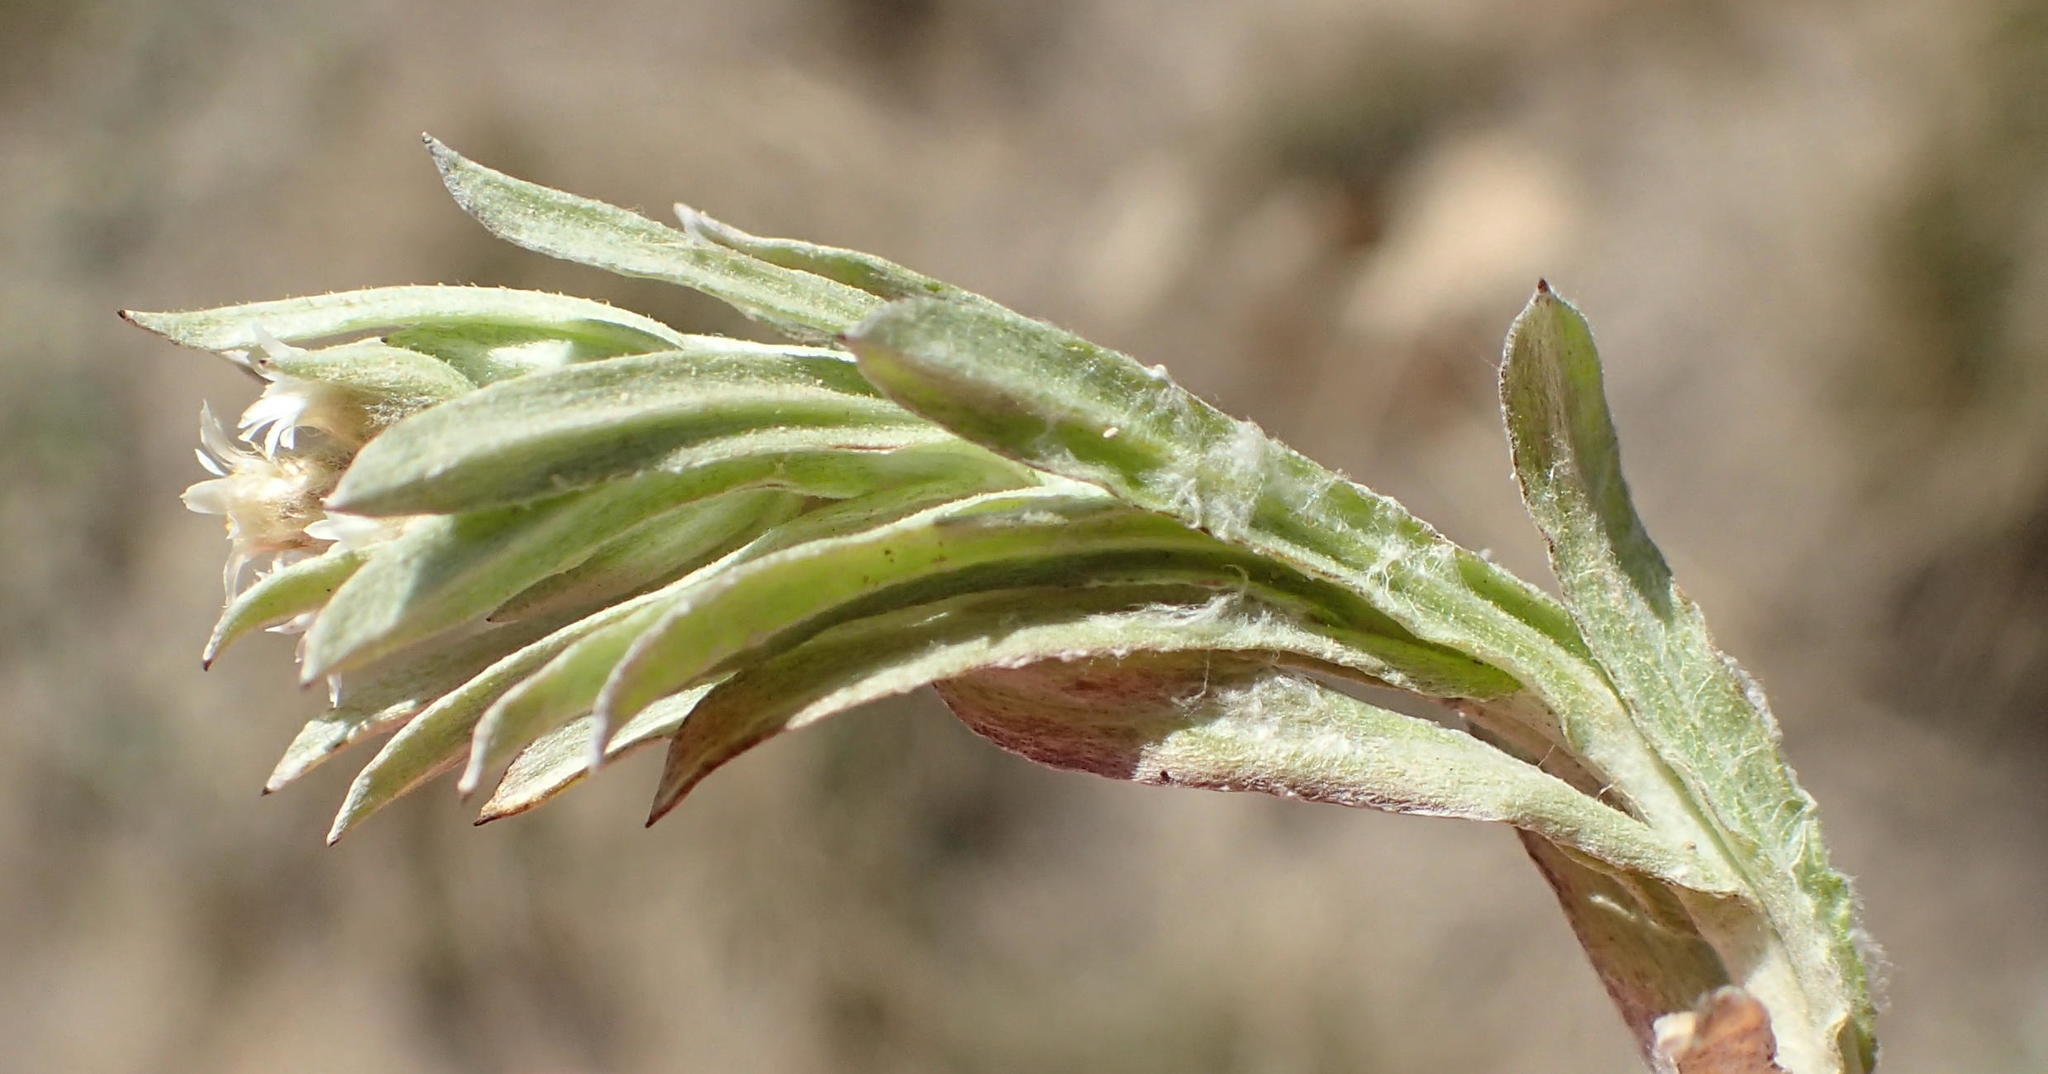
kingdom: Plantae
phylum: Tracheophyta
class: Magnoliopsida
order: Asterales
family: Asteraceae
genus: Gnaphalium
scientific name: Gnaphalium capense
